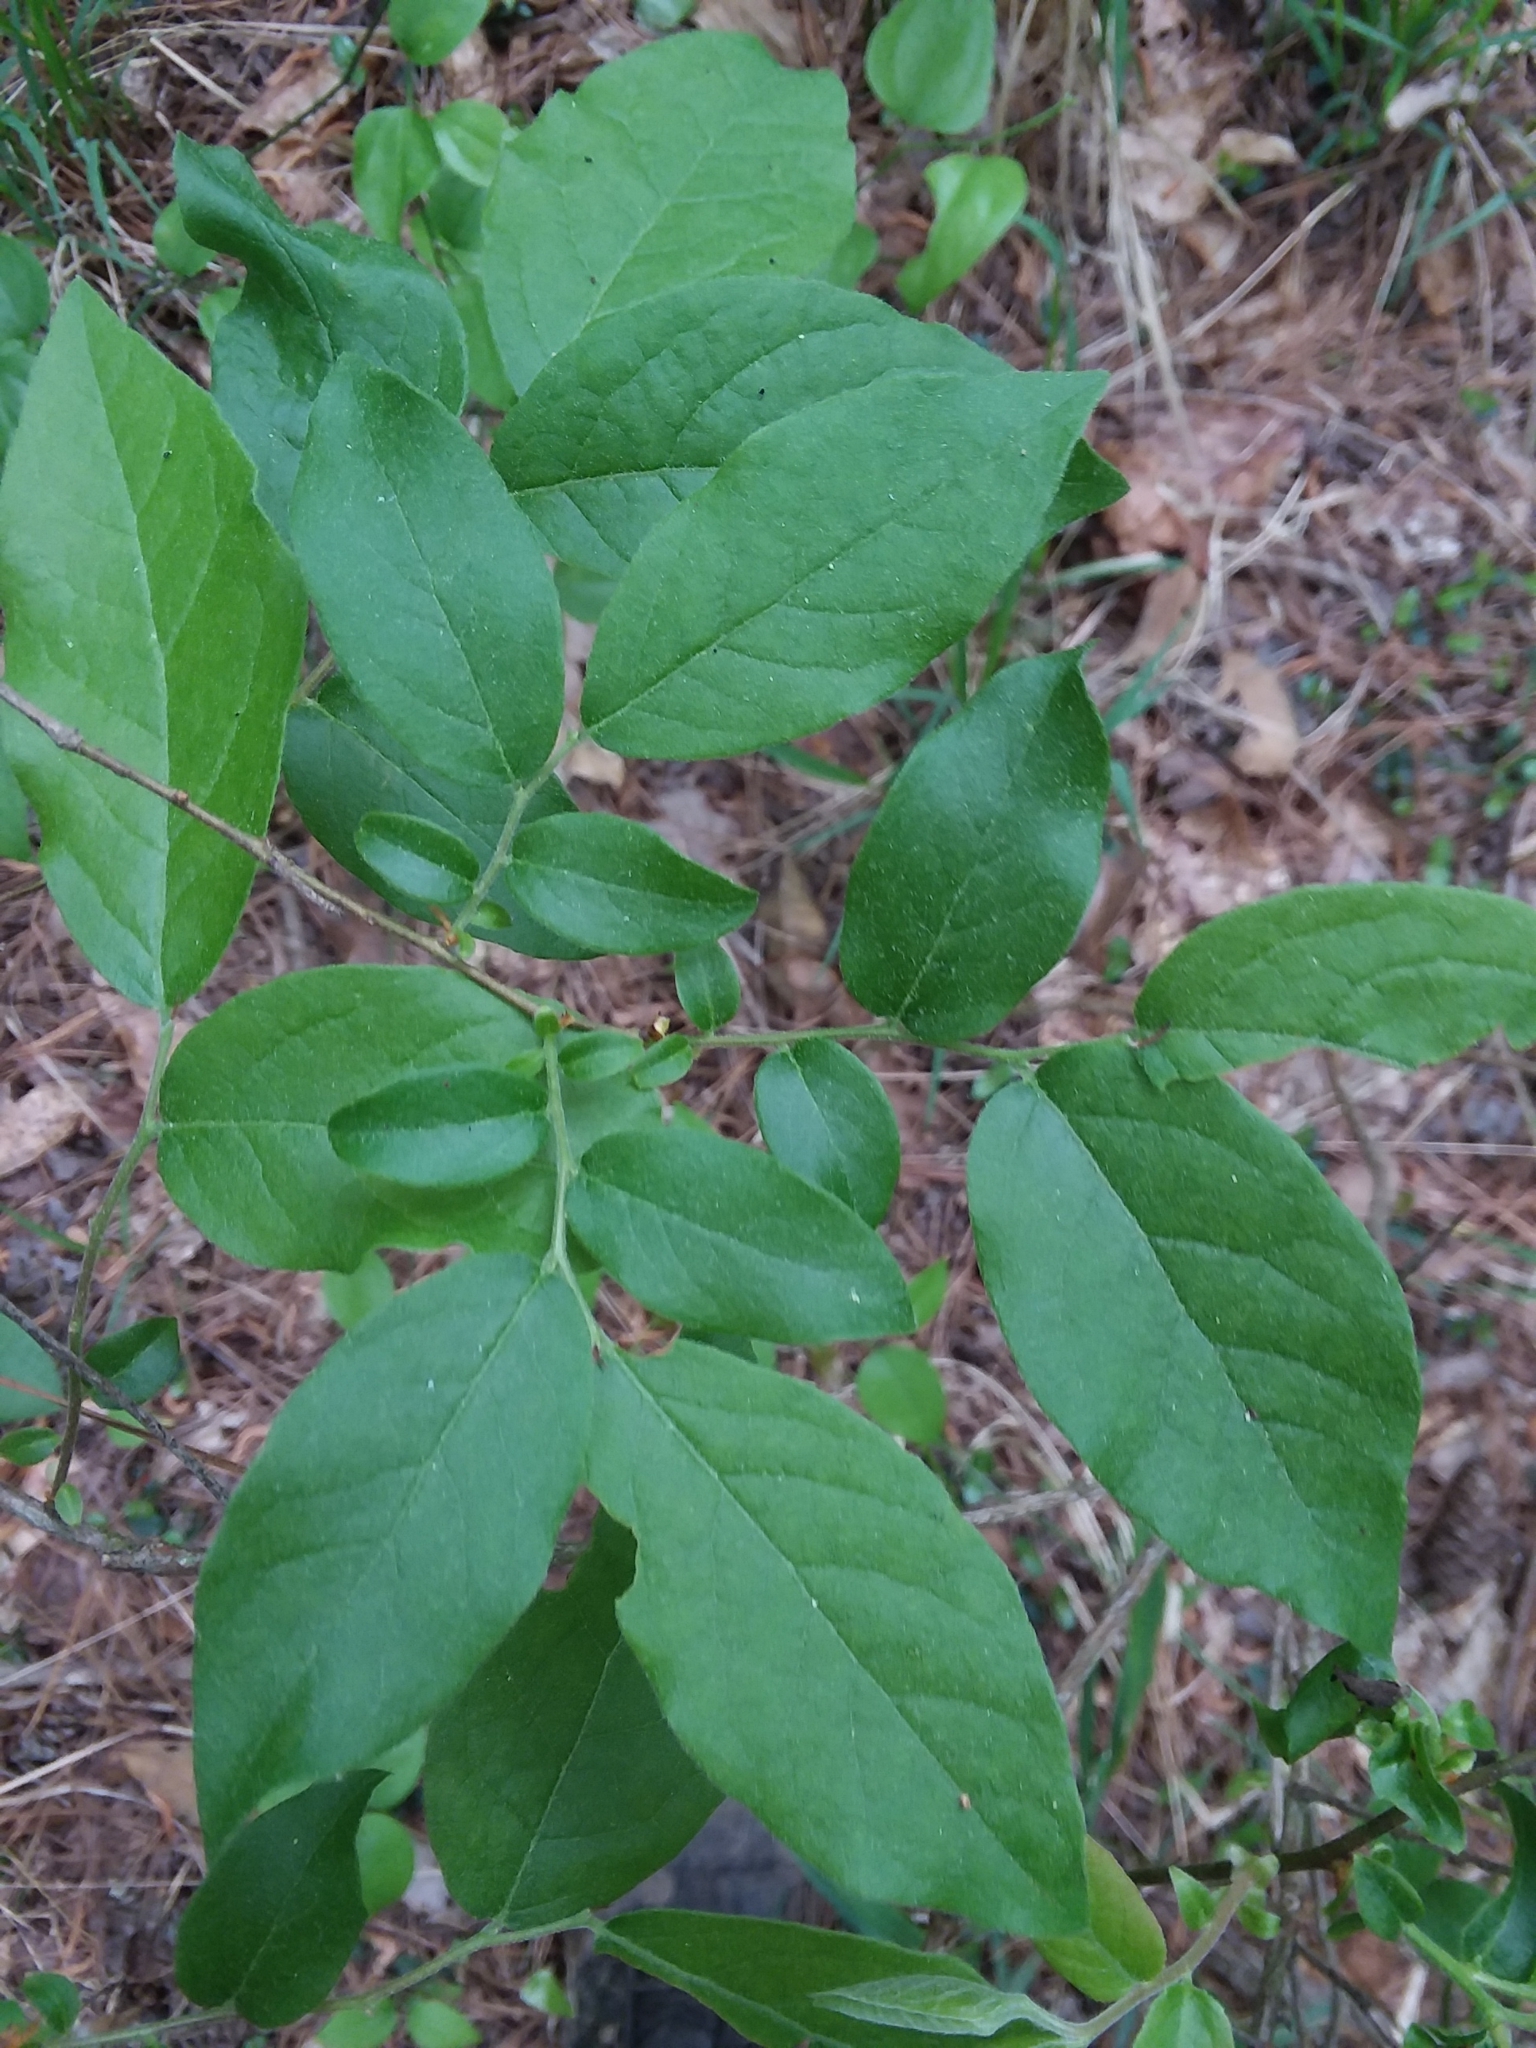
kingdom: Plantae
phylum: Tracheophyta
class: Magnoliopsida
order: Ericales
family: Ericaceae
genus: Vaccinium
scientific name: Vaccinium stamineum
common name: Deerberry
